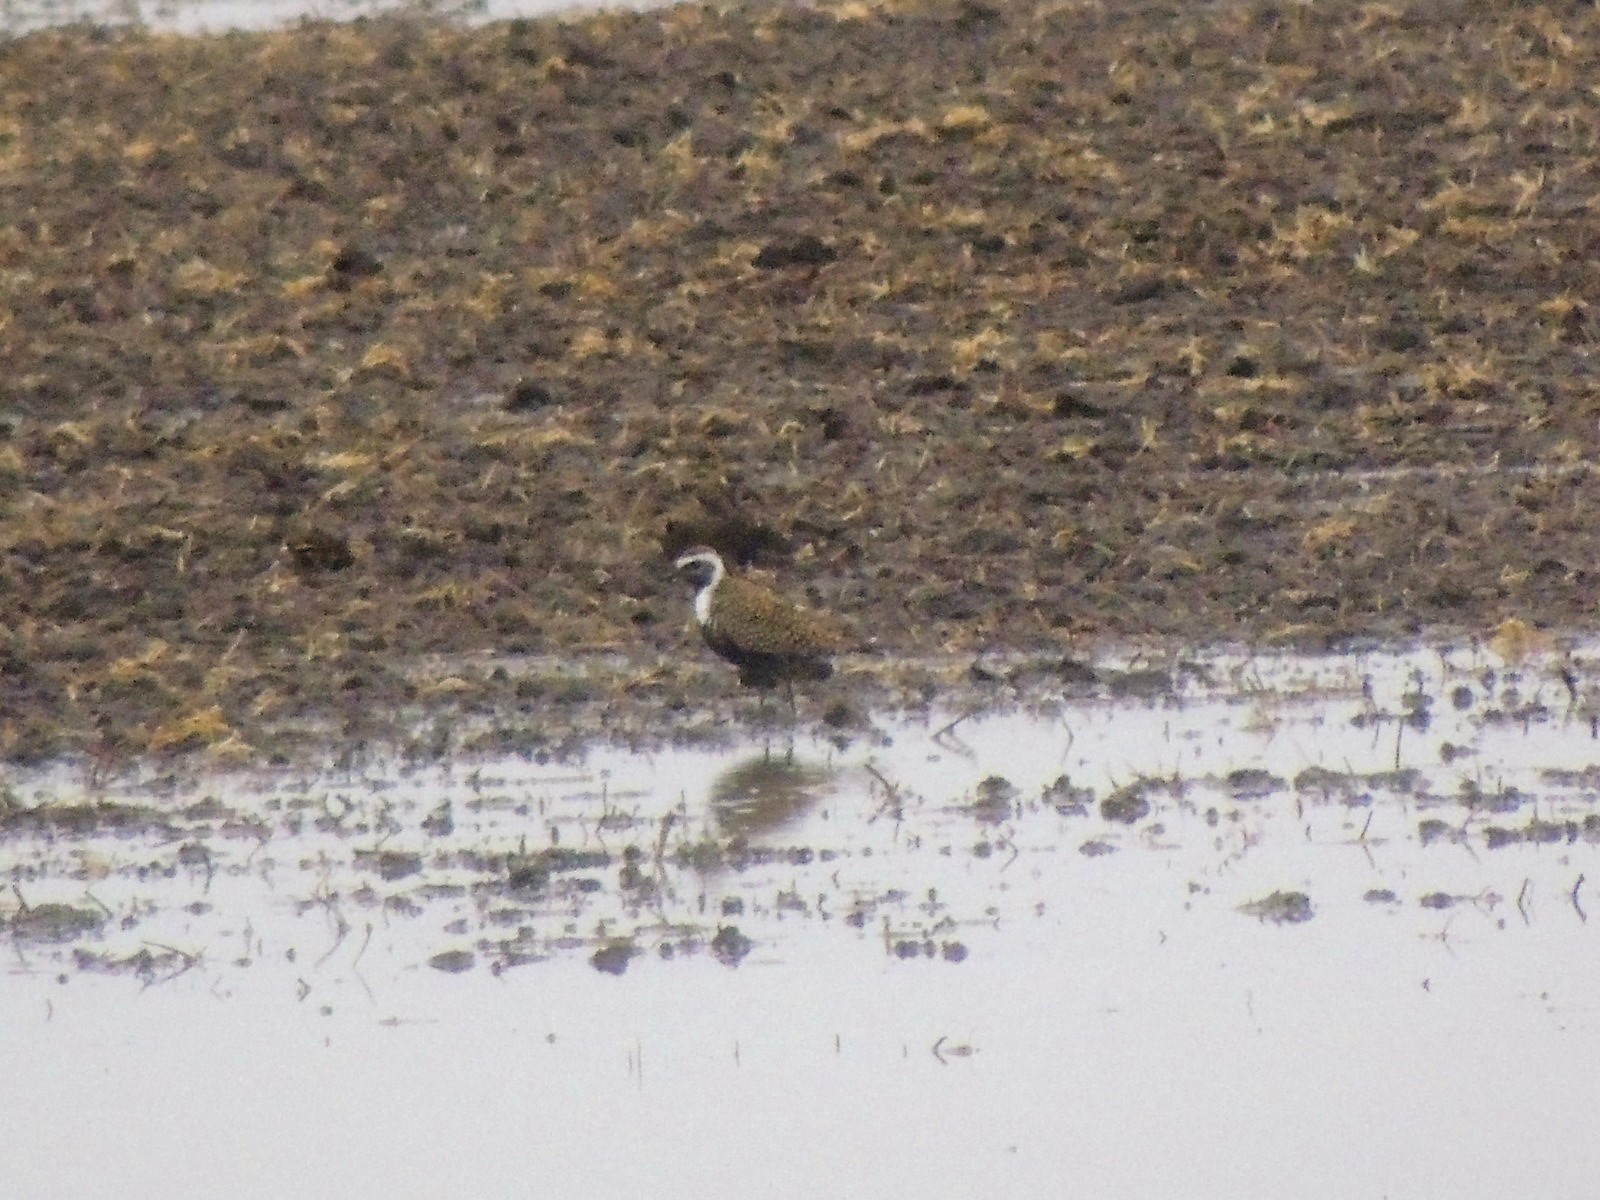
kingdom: Animalia
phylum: Chordata
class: Aves
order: Charadriiformes
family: Charadriidae
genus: Pluvialis
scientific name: Pluvialis dominica
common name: American golden plover
